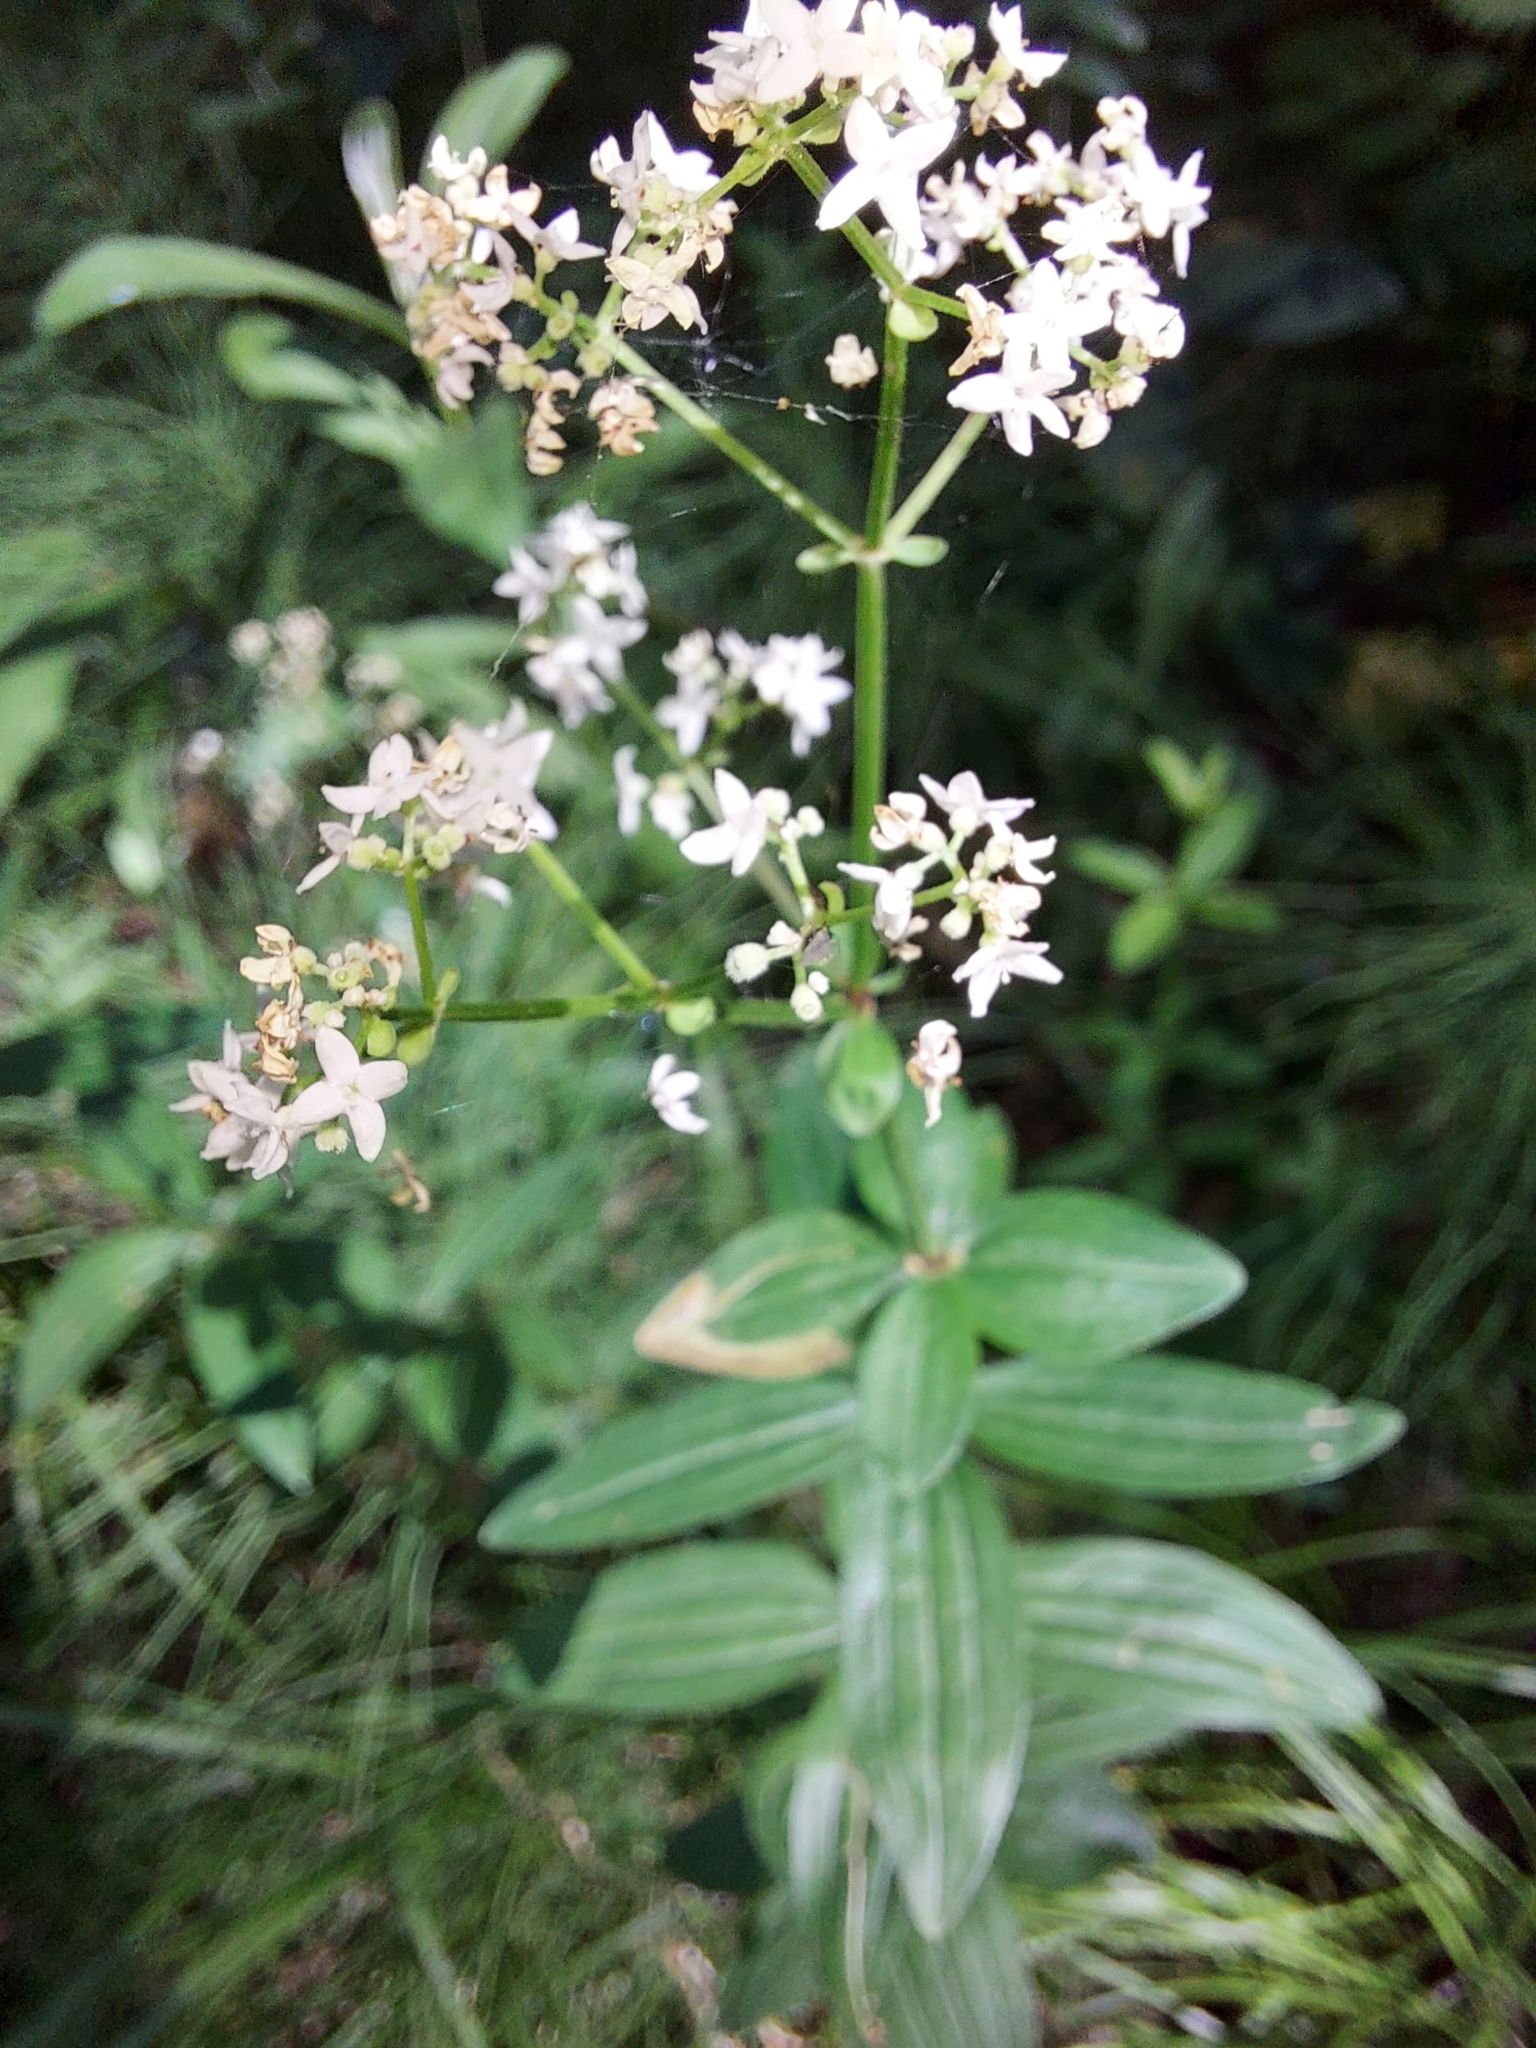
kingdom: Plantae
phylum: Tracheophyta
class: Magnoliopsida
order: Gentianales
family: Rubiaceae
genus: Galium
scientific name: Galium rubioides
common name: European bedstraw
